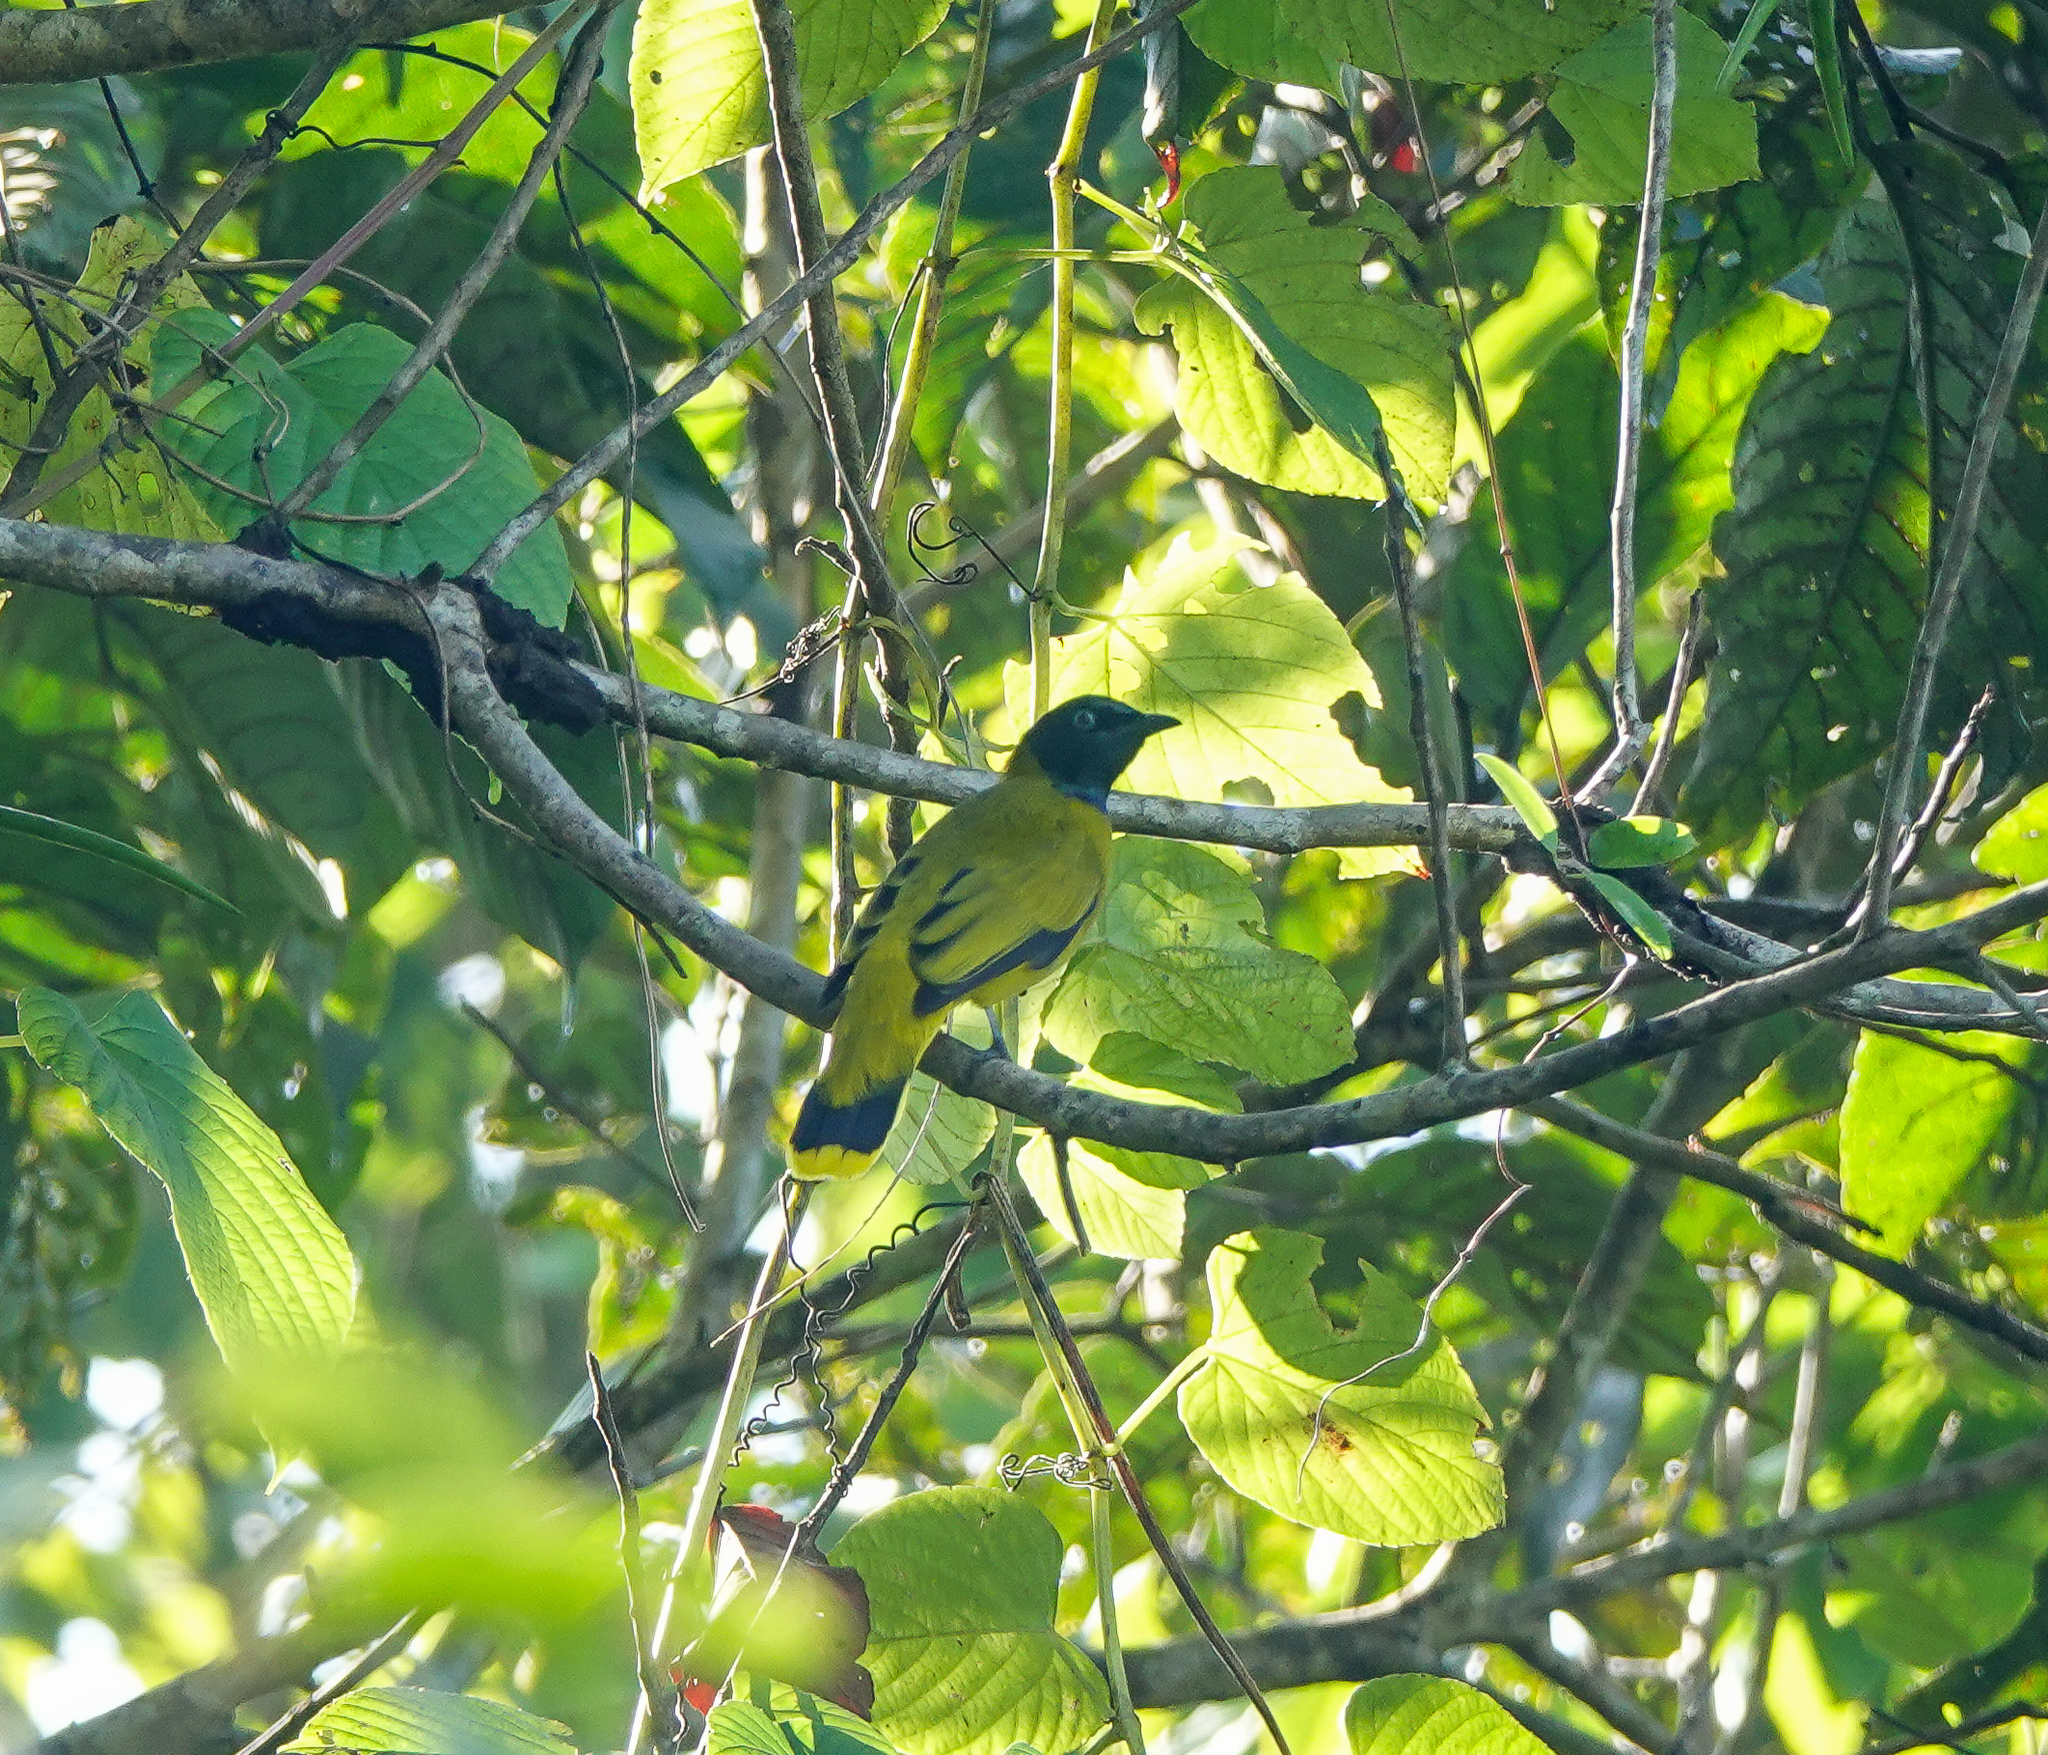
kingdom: Animalia
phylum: Chordata
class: Aves
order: Passeriformes
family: Pycnonotidae
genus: Microtarsus
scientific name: Microtarsus
